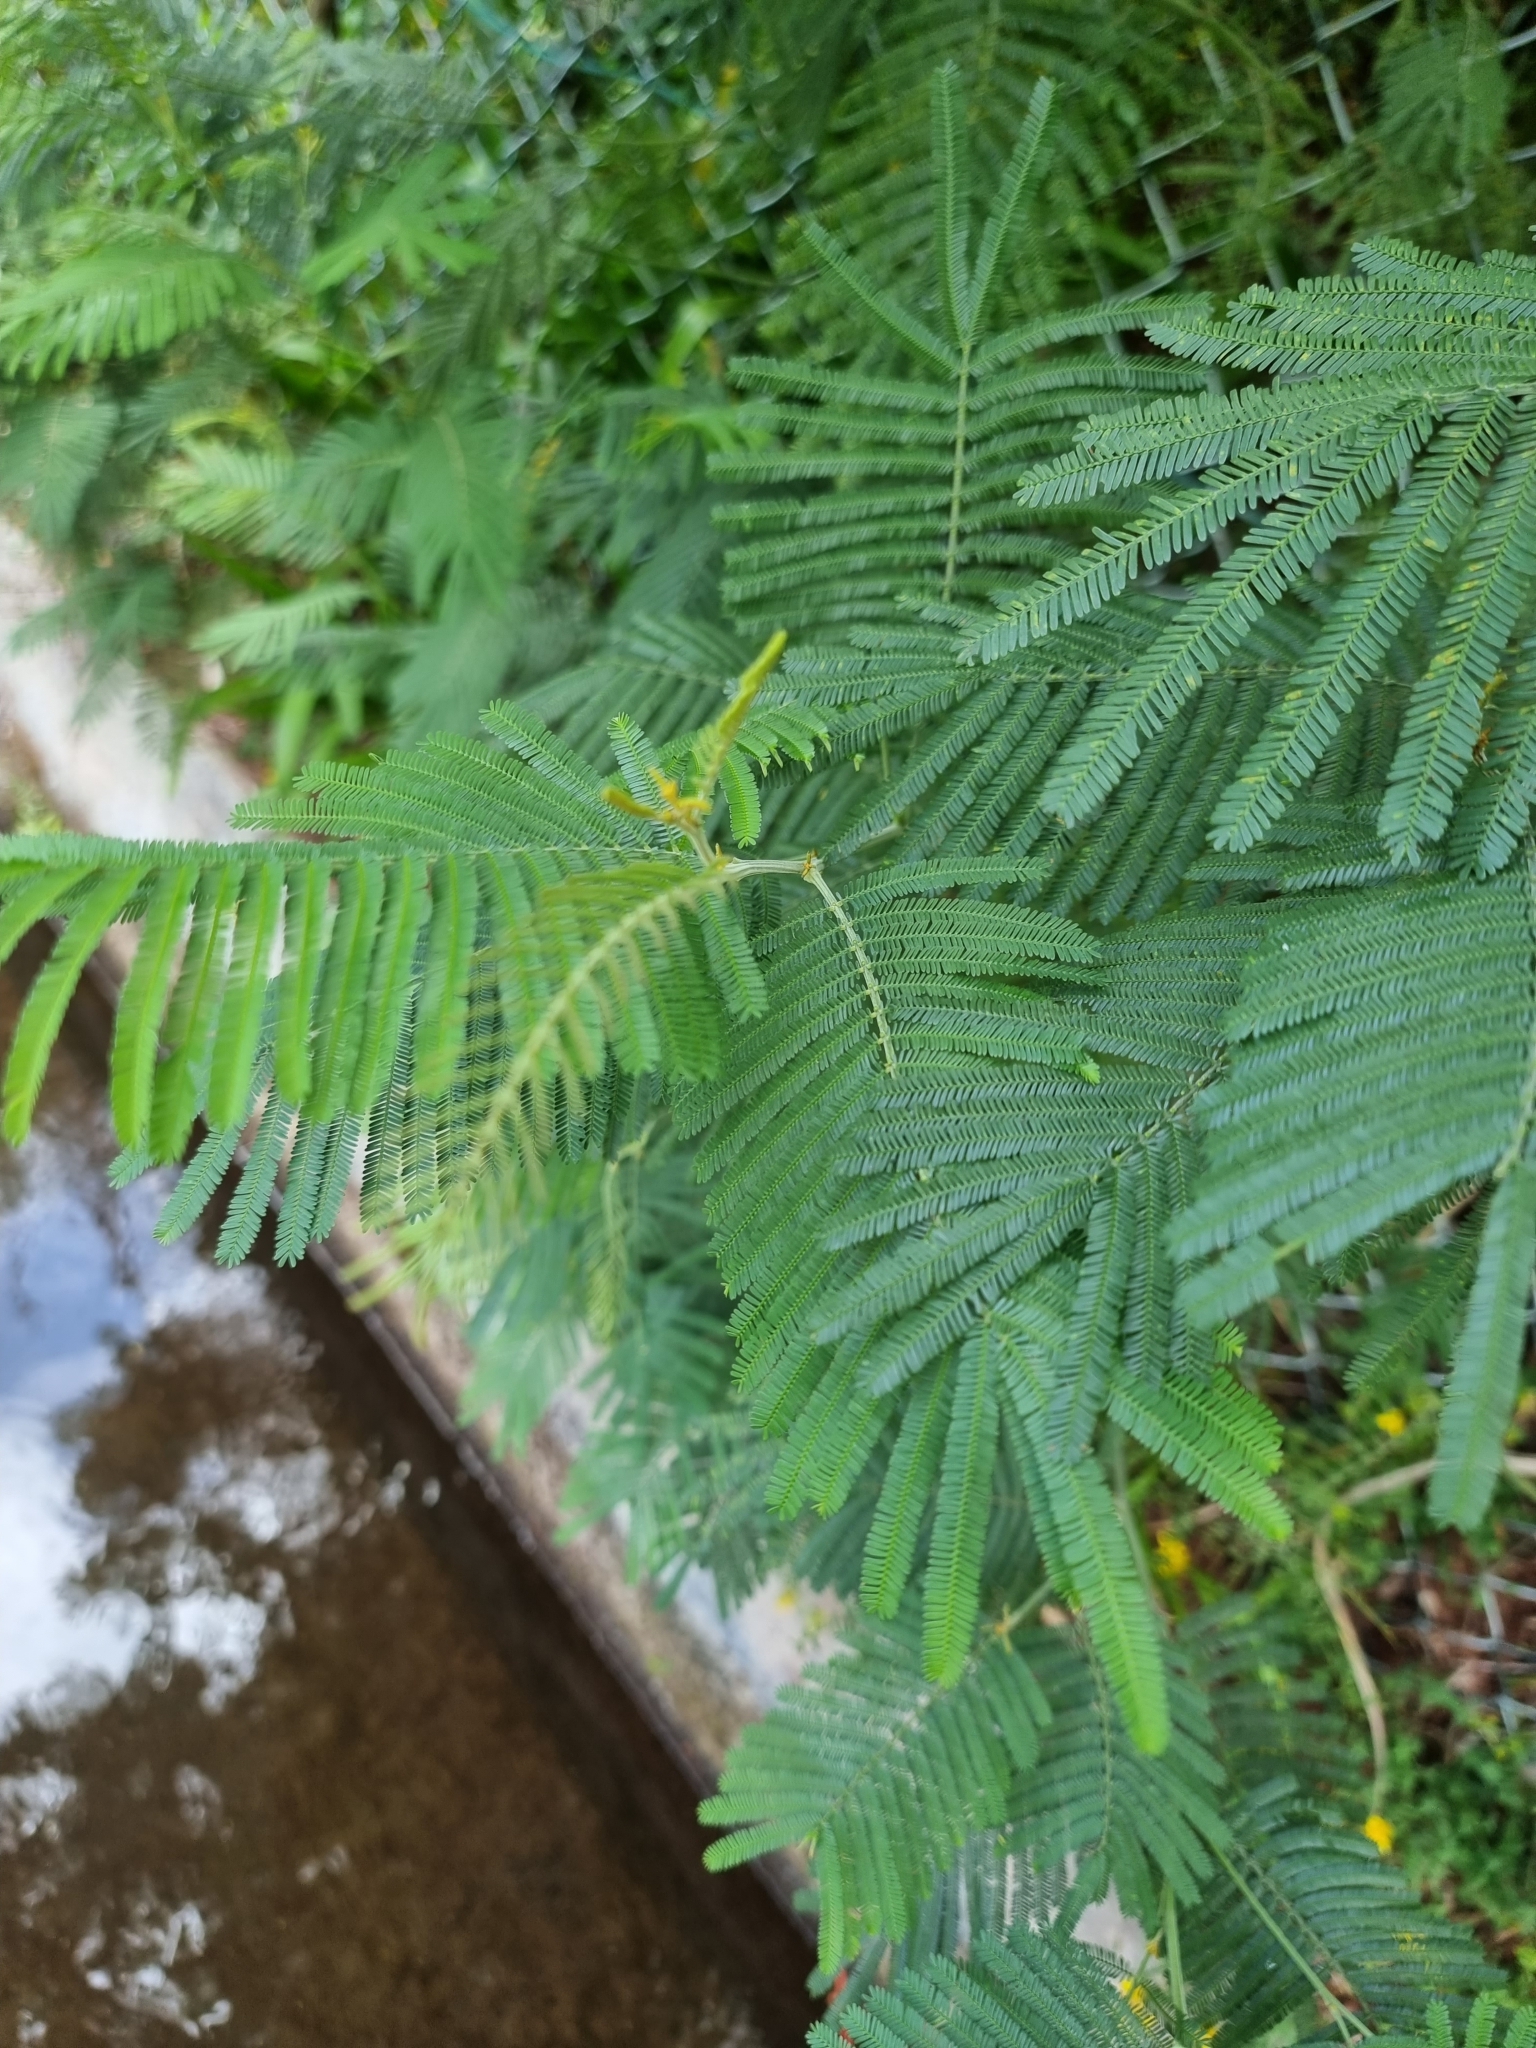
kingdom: Plantae
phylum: Tracheophyta
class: Magnoliopsida
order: Fabales
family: Fabaceae
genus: Acacia
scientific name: Acacia mearnsii
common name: Black wattle
